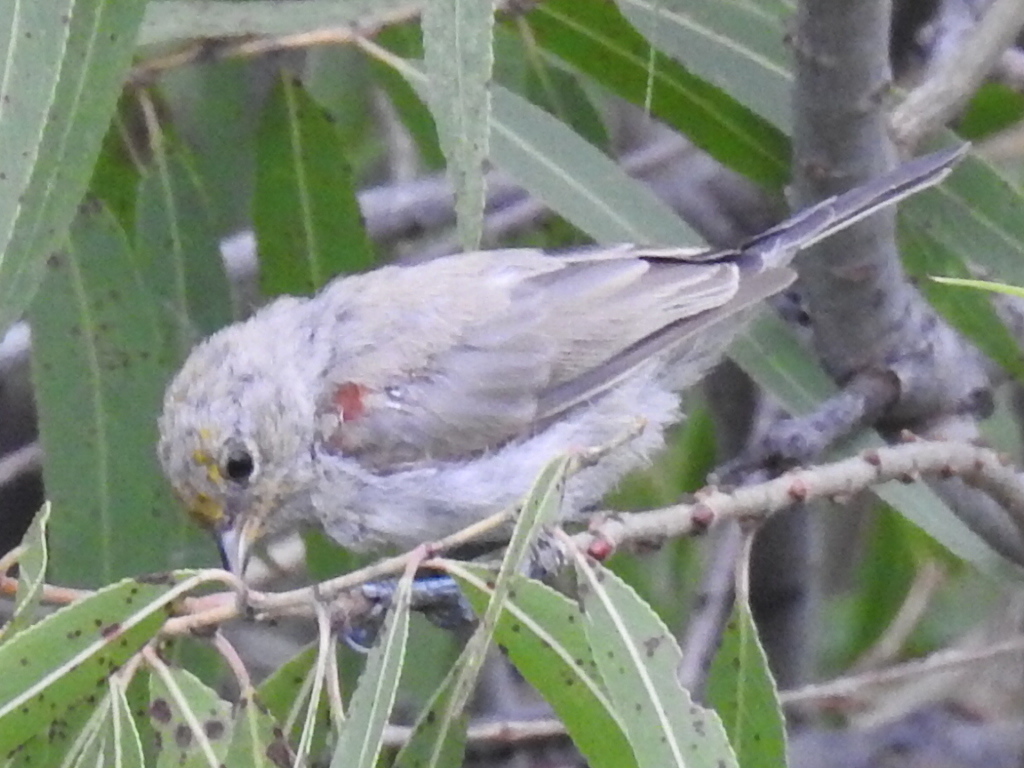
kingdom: Animalia
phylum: Chordata
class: Aves
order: Passeriformes
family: Remizidae
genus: Auriparus
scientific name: Auriparus flaviceps
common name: Verdin
